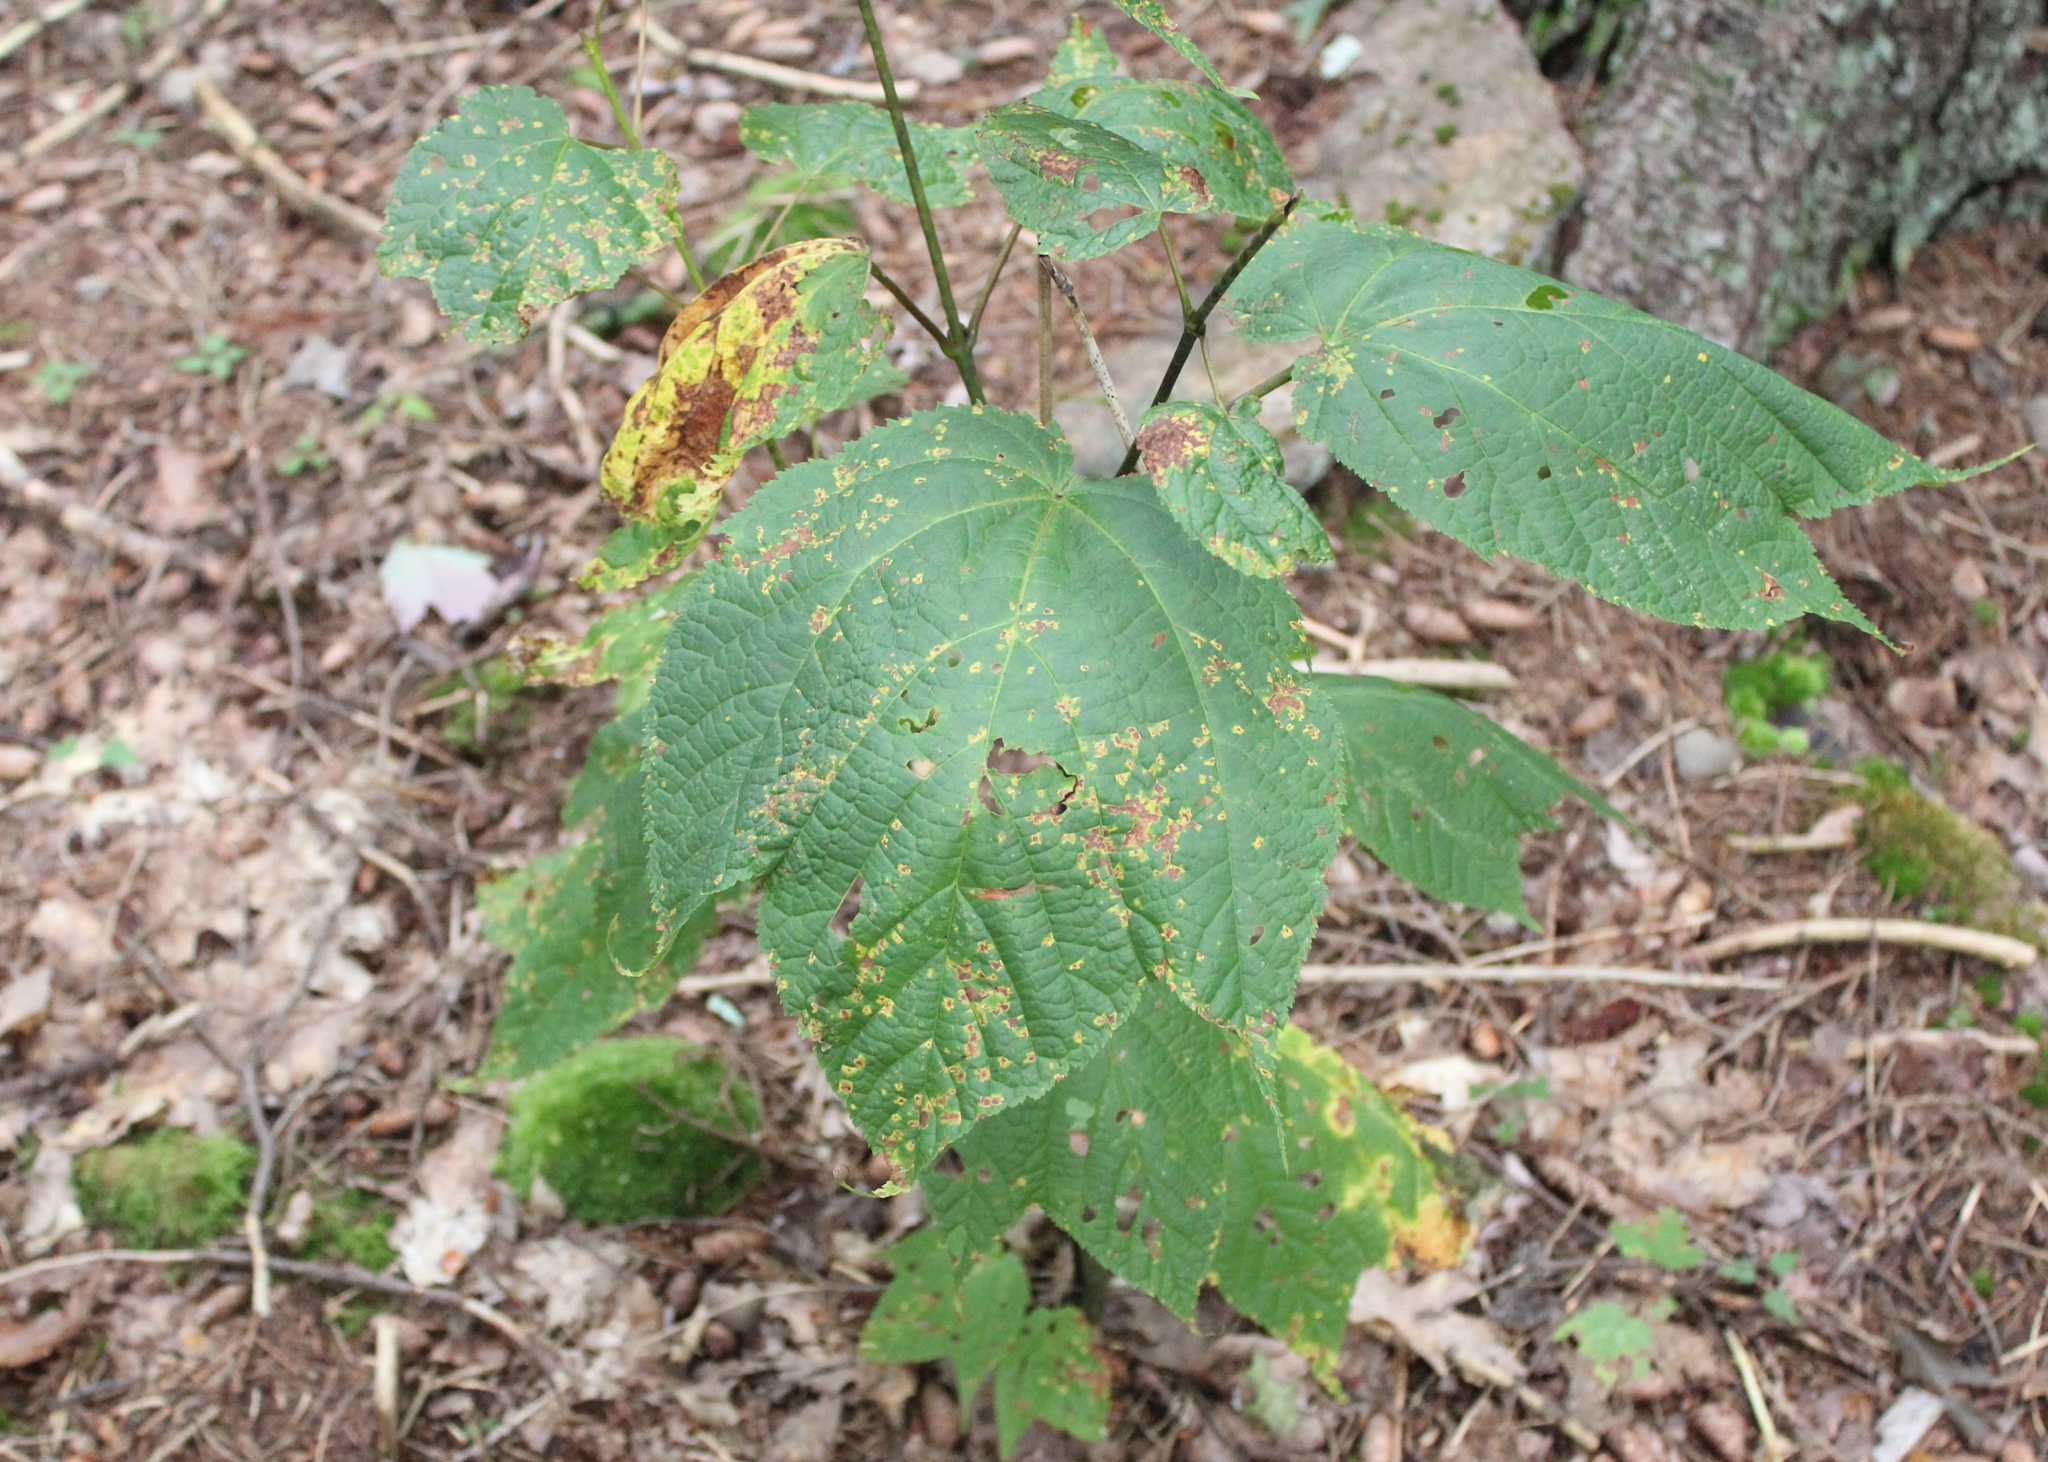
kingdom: Plantae
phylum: Tracheophyta
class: Magnoliopsida
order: Sapindales
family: Sapindaceae
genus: Acer
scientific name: Acer pensylvanicum
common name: Moosewood
